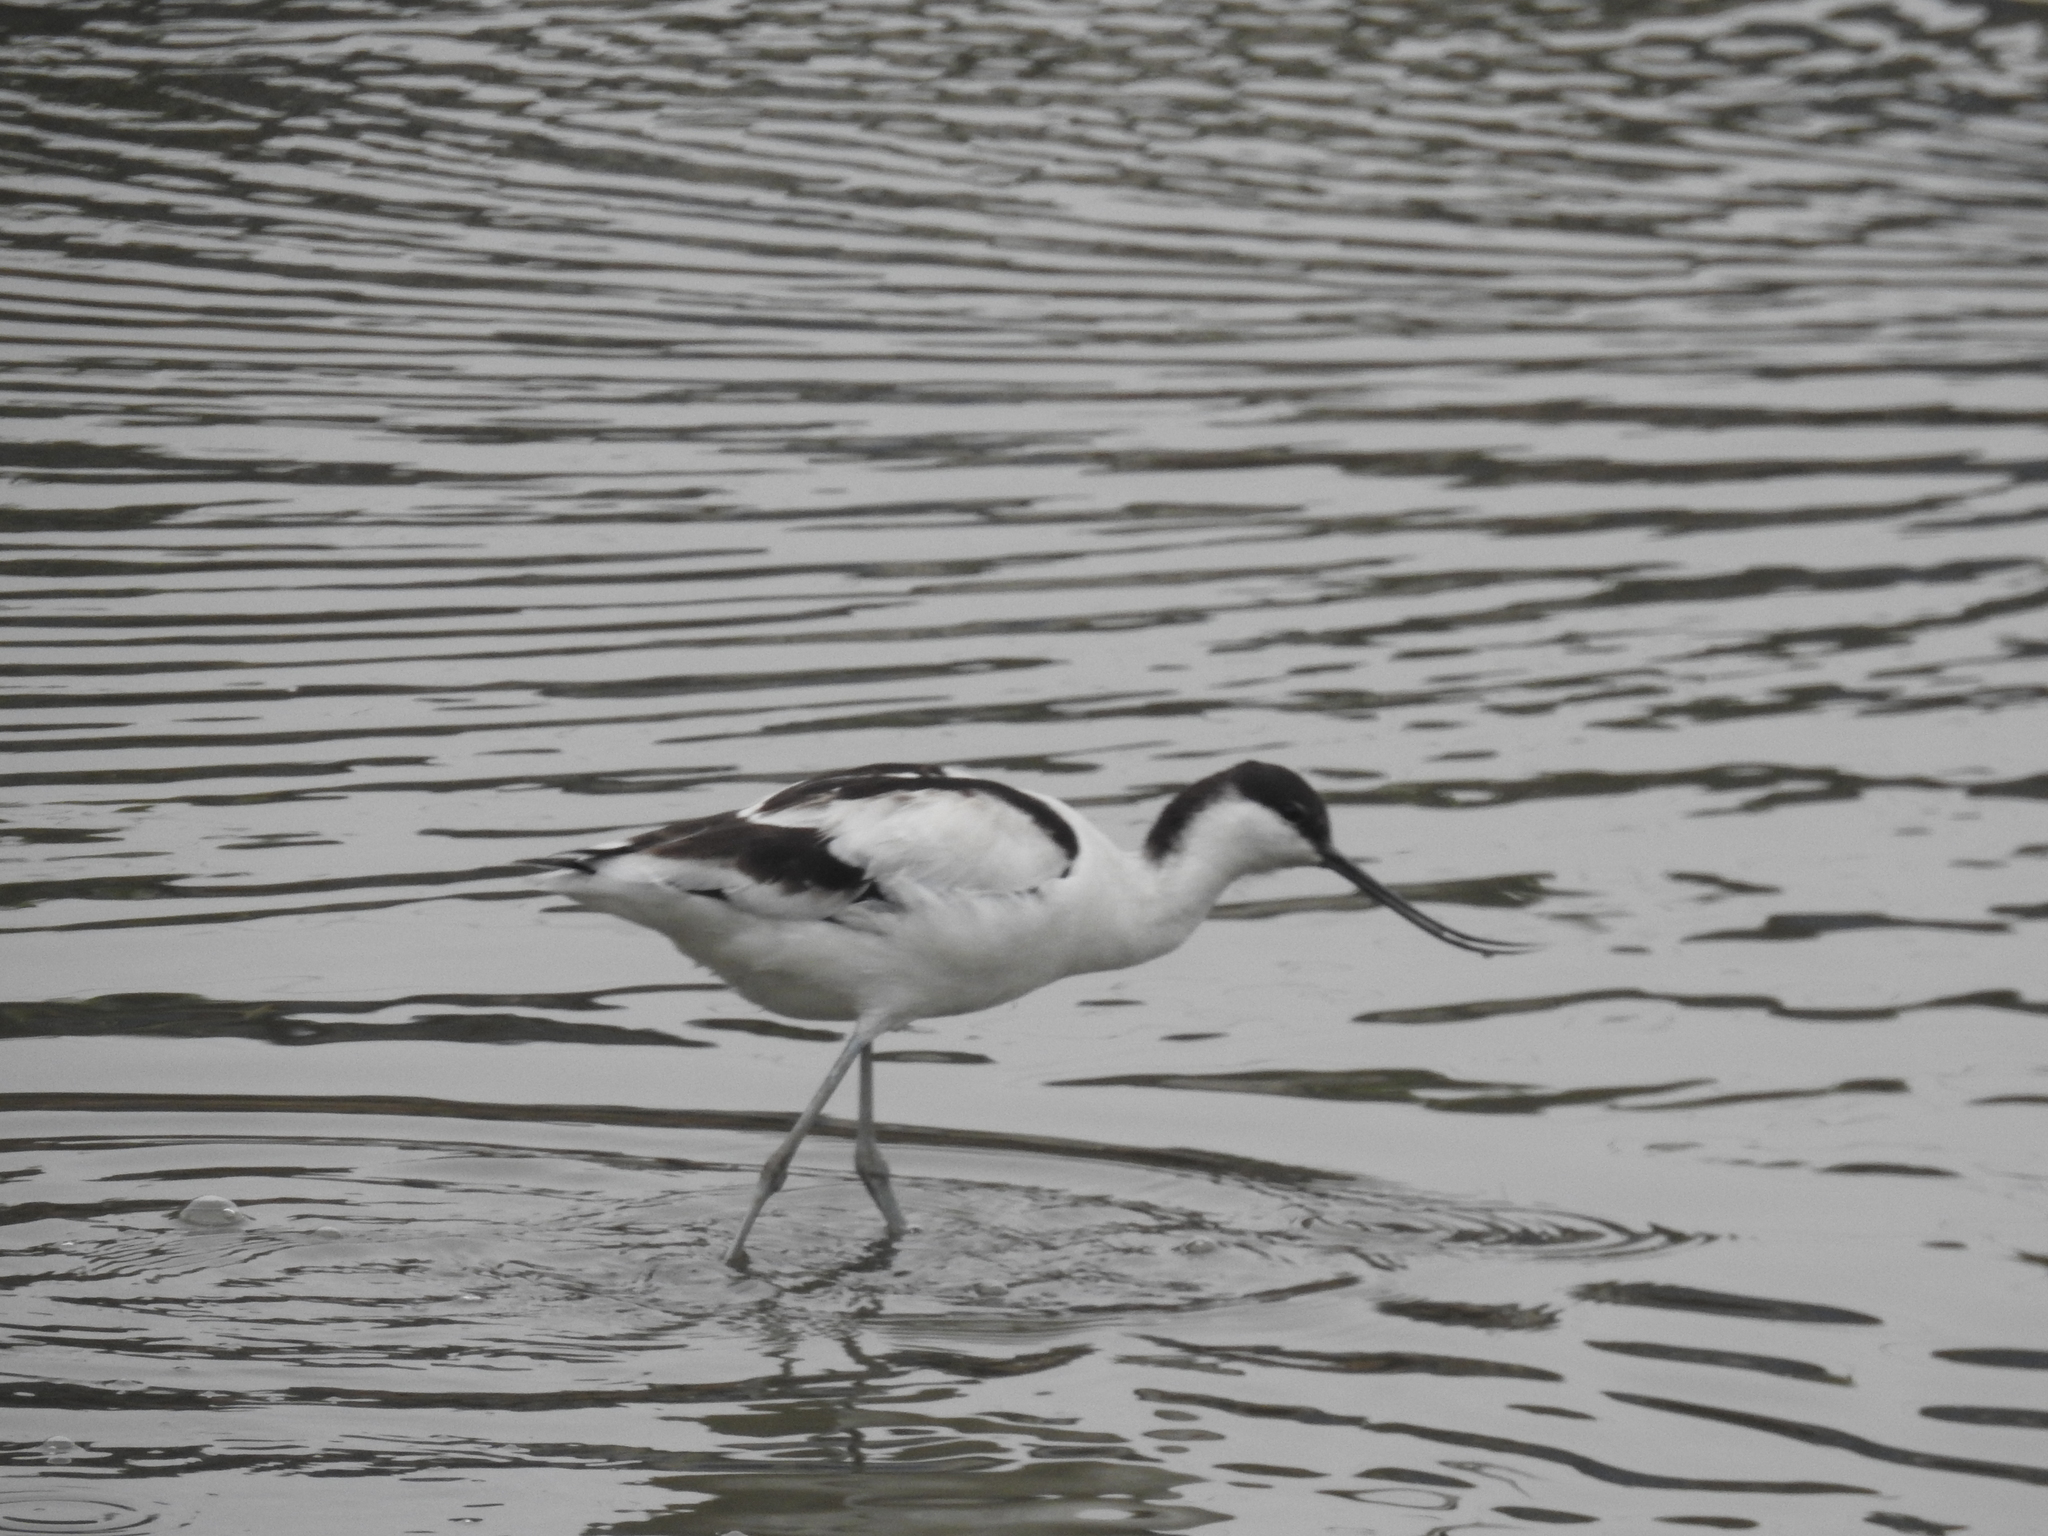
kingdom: Animalia
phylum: Chordata
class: Aves
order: Charadriiformes
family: Recurvirostridae
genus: Recurvirostra
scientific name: Recurvirostra avosetta
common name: Pied avocet
